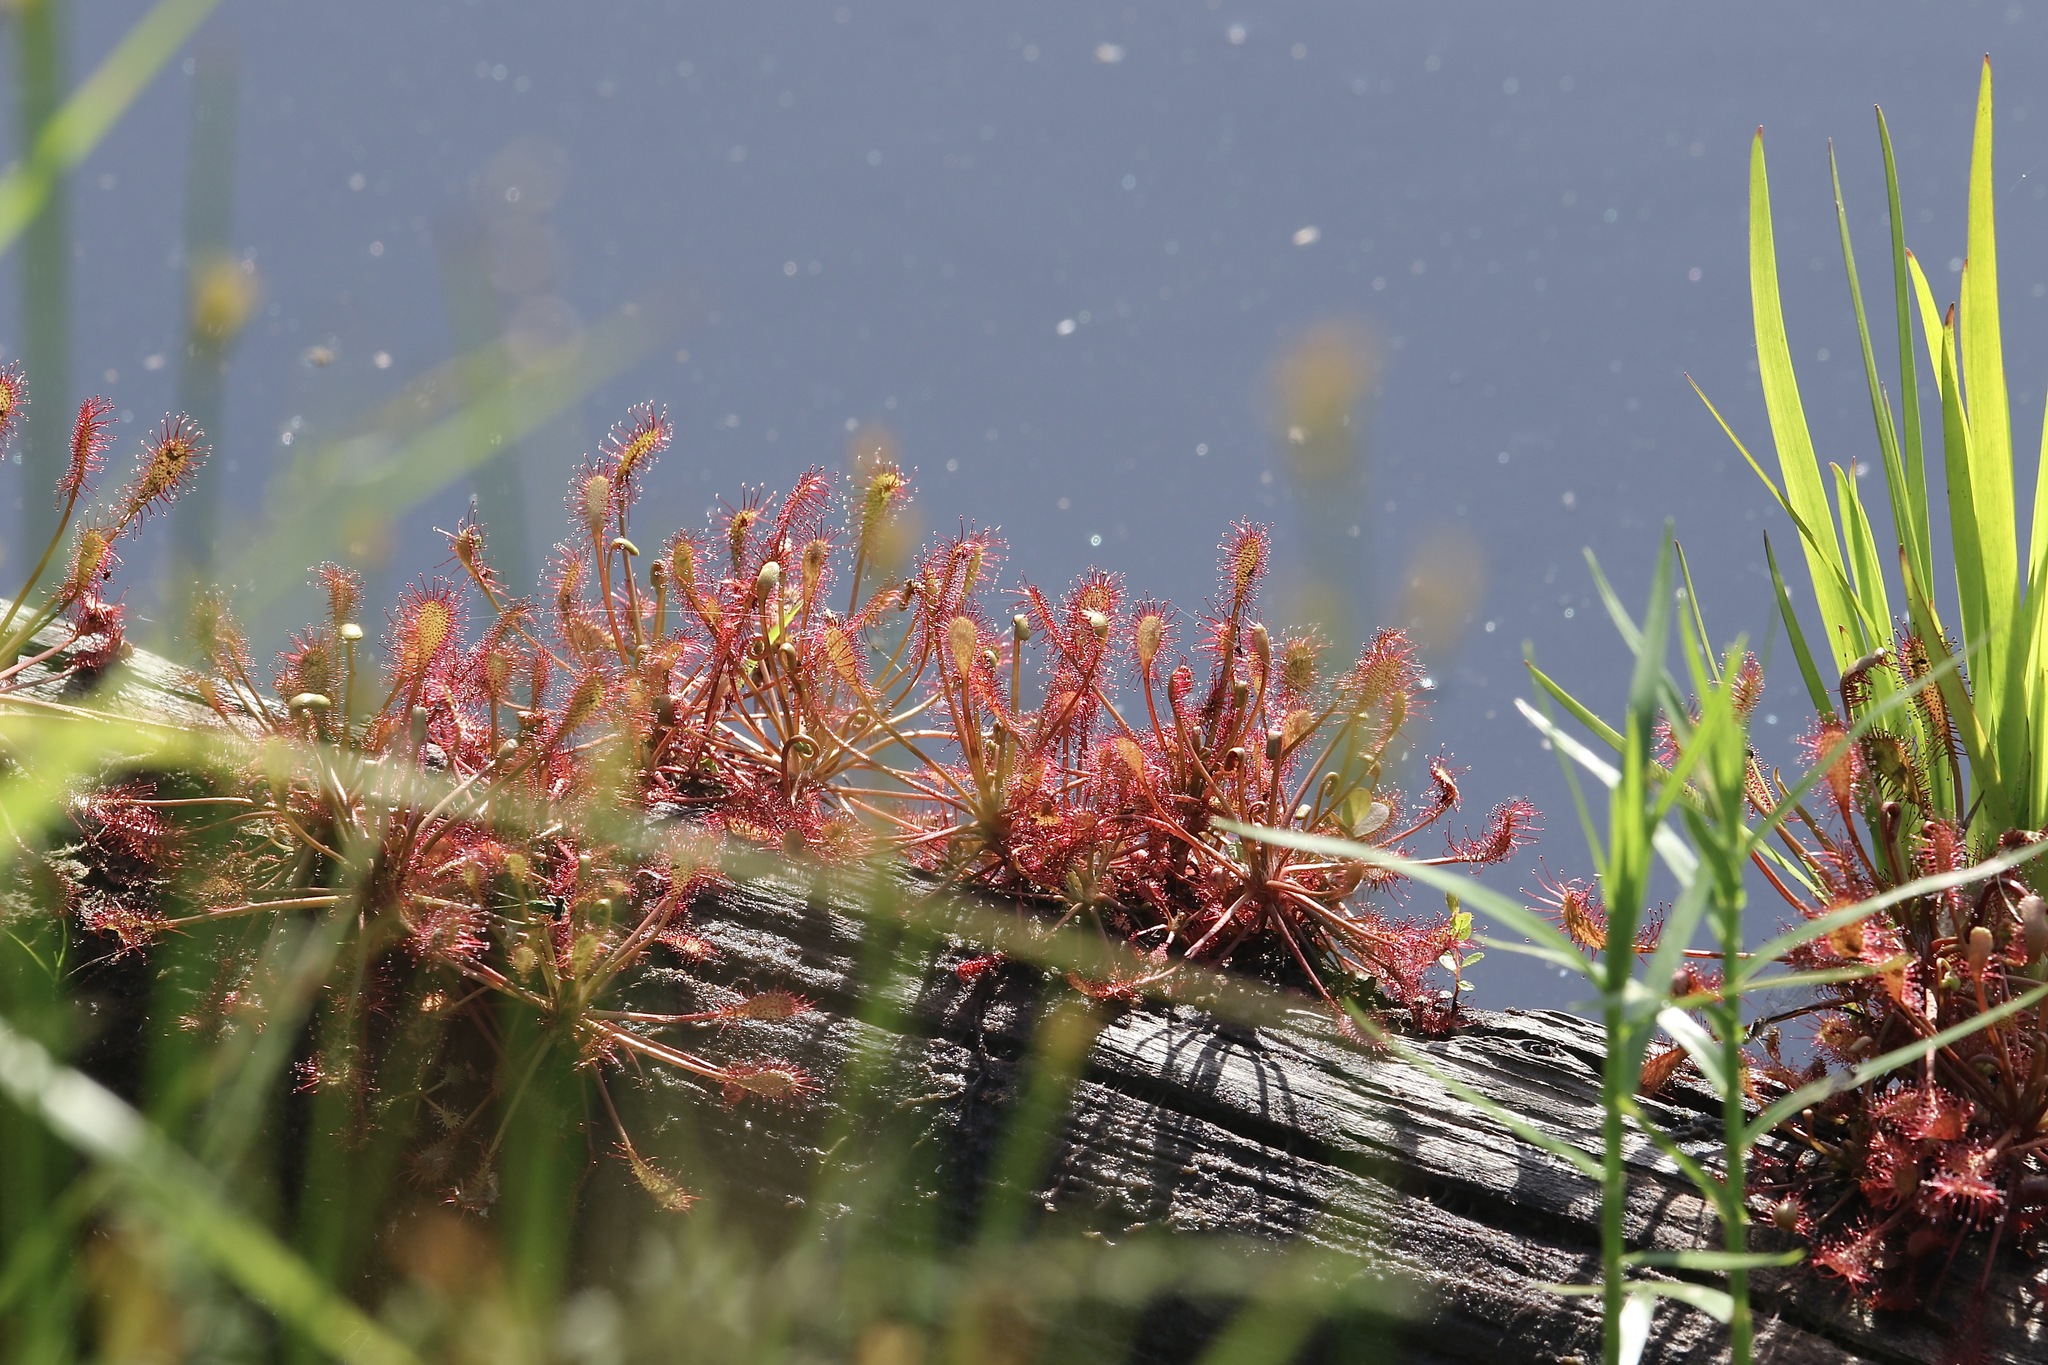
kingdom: Plantae
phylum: Tracheophyta
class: Magnoliopsida
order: Caryophyllales
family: Droseraceae
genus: Drosera
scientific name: Drosera intermedia
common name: Oblong-leaved sundew
